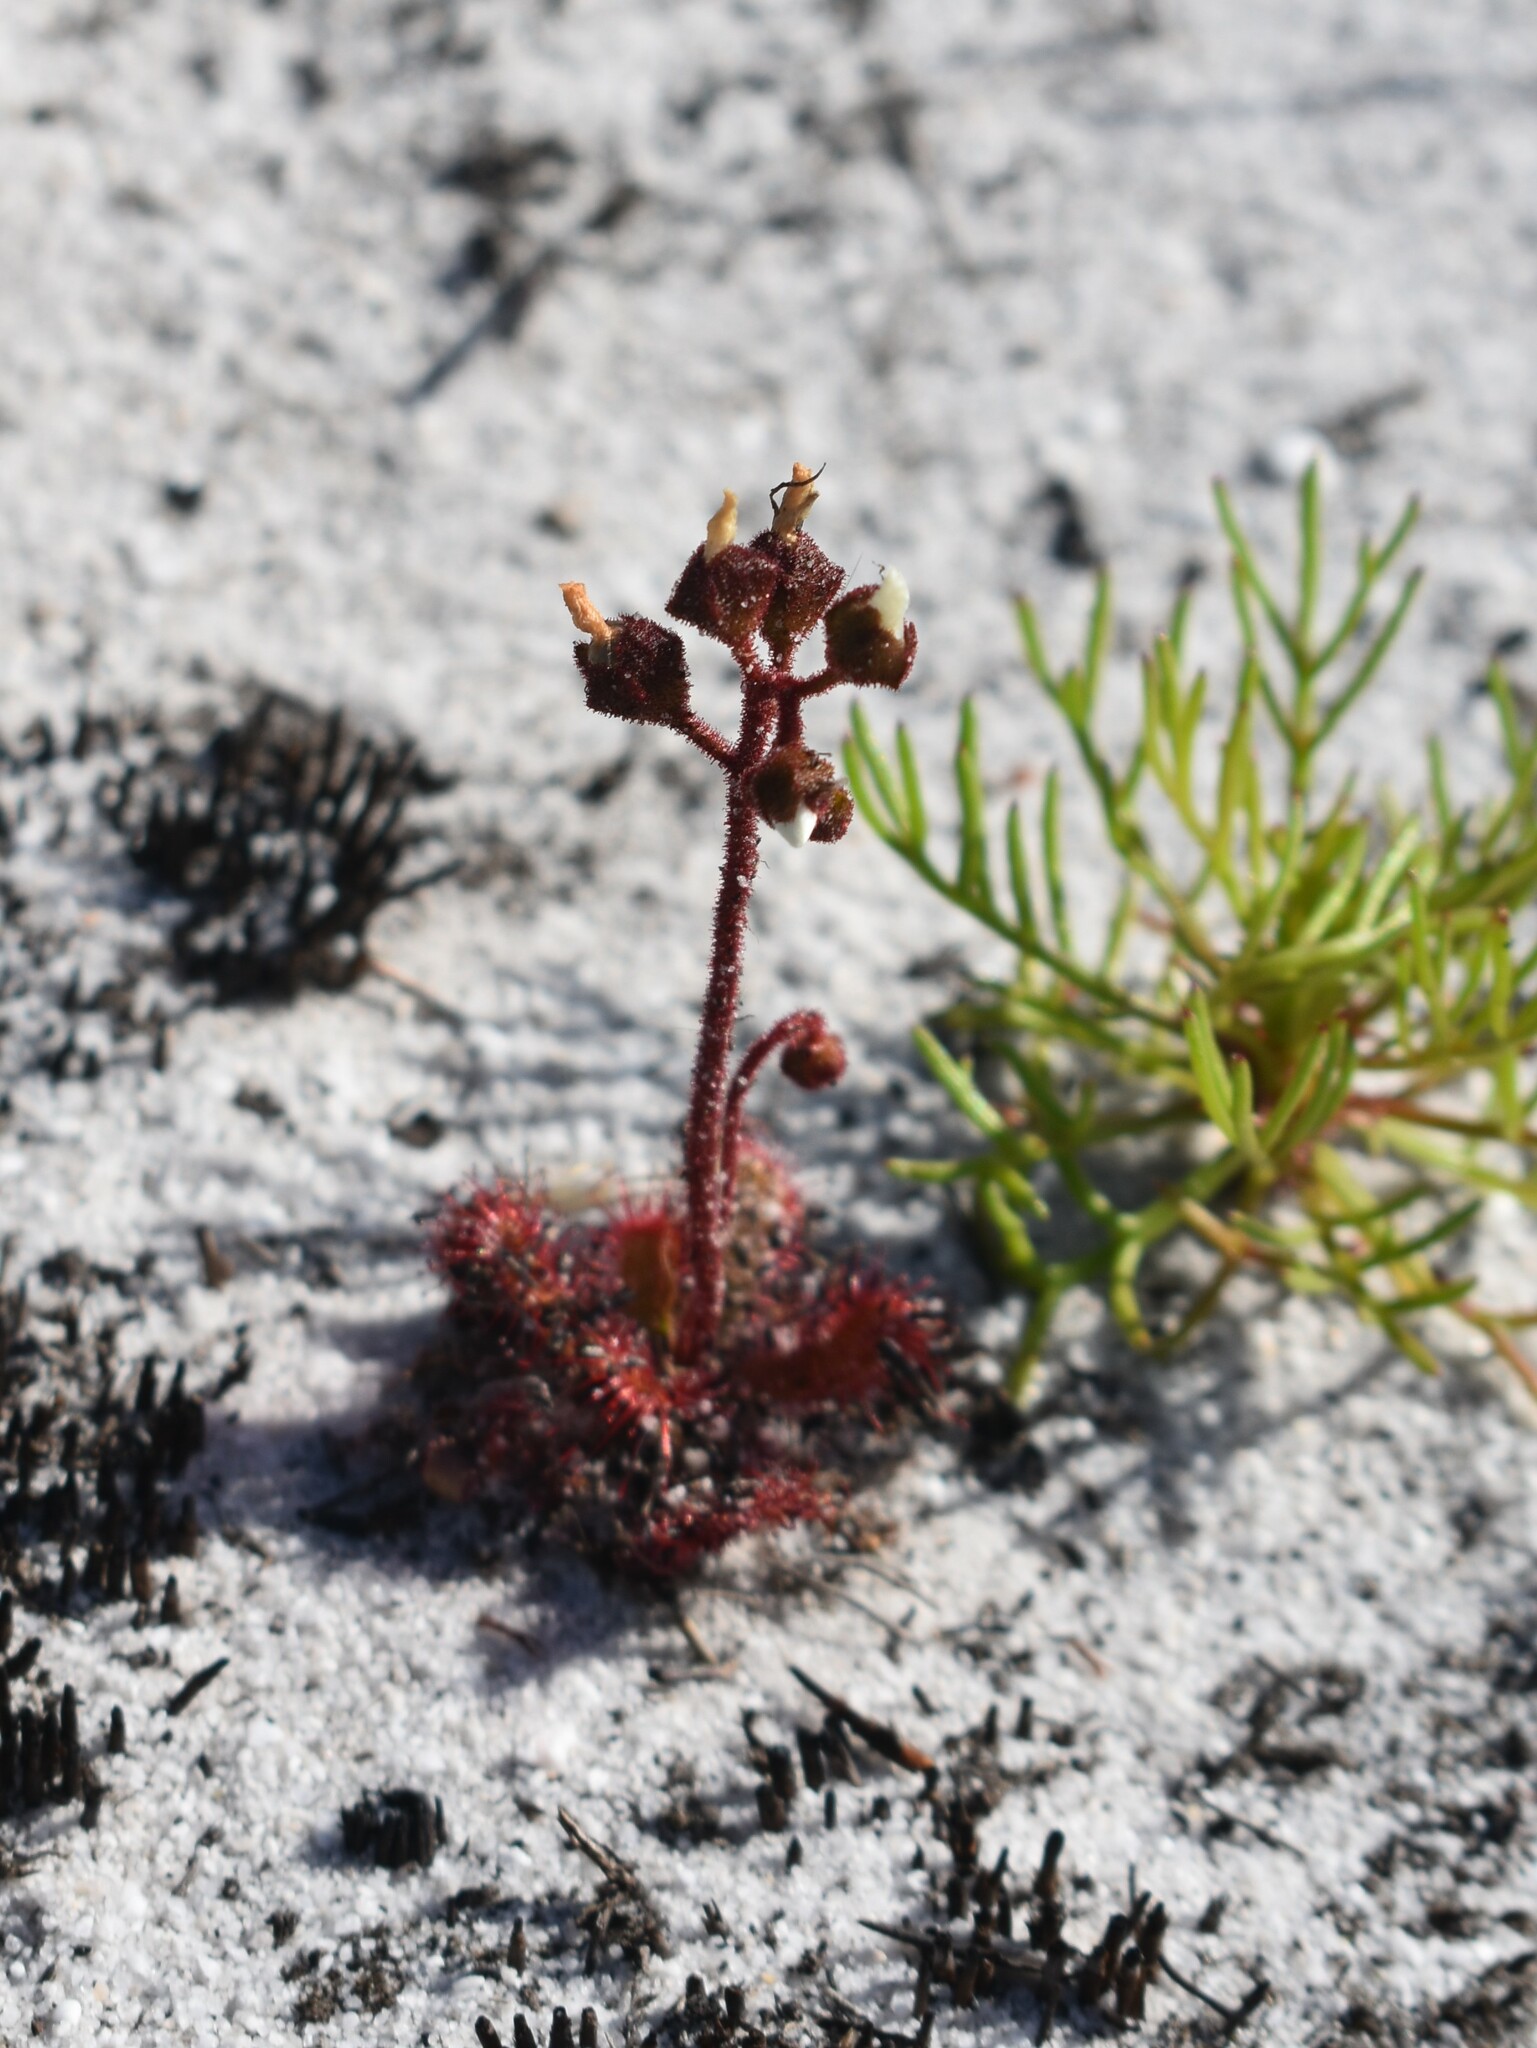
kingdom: Plantae
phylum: Tracheophyta
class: Magnoliopsida
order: Caryophyllales
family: Droseraceae
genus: Drosera
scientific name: Drosera trinervia
